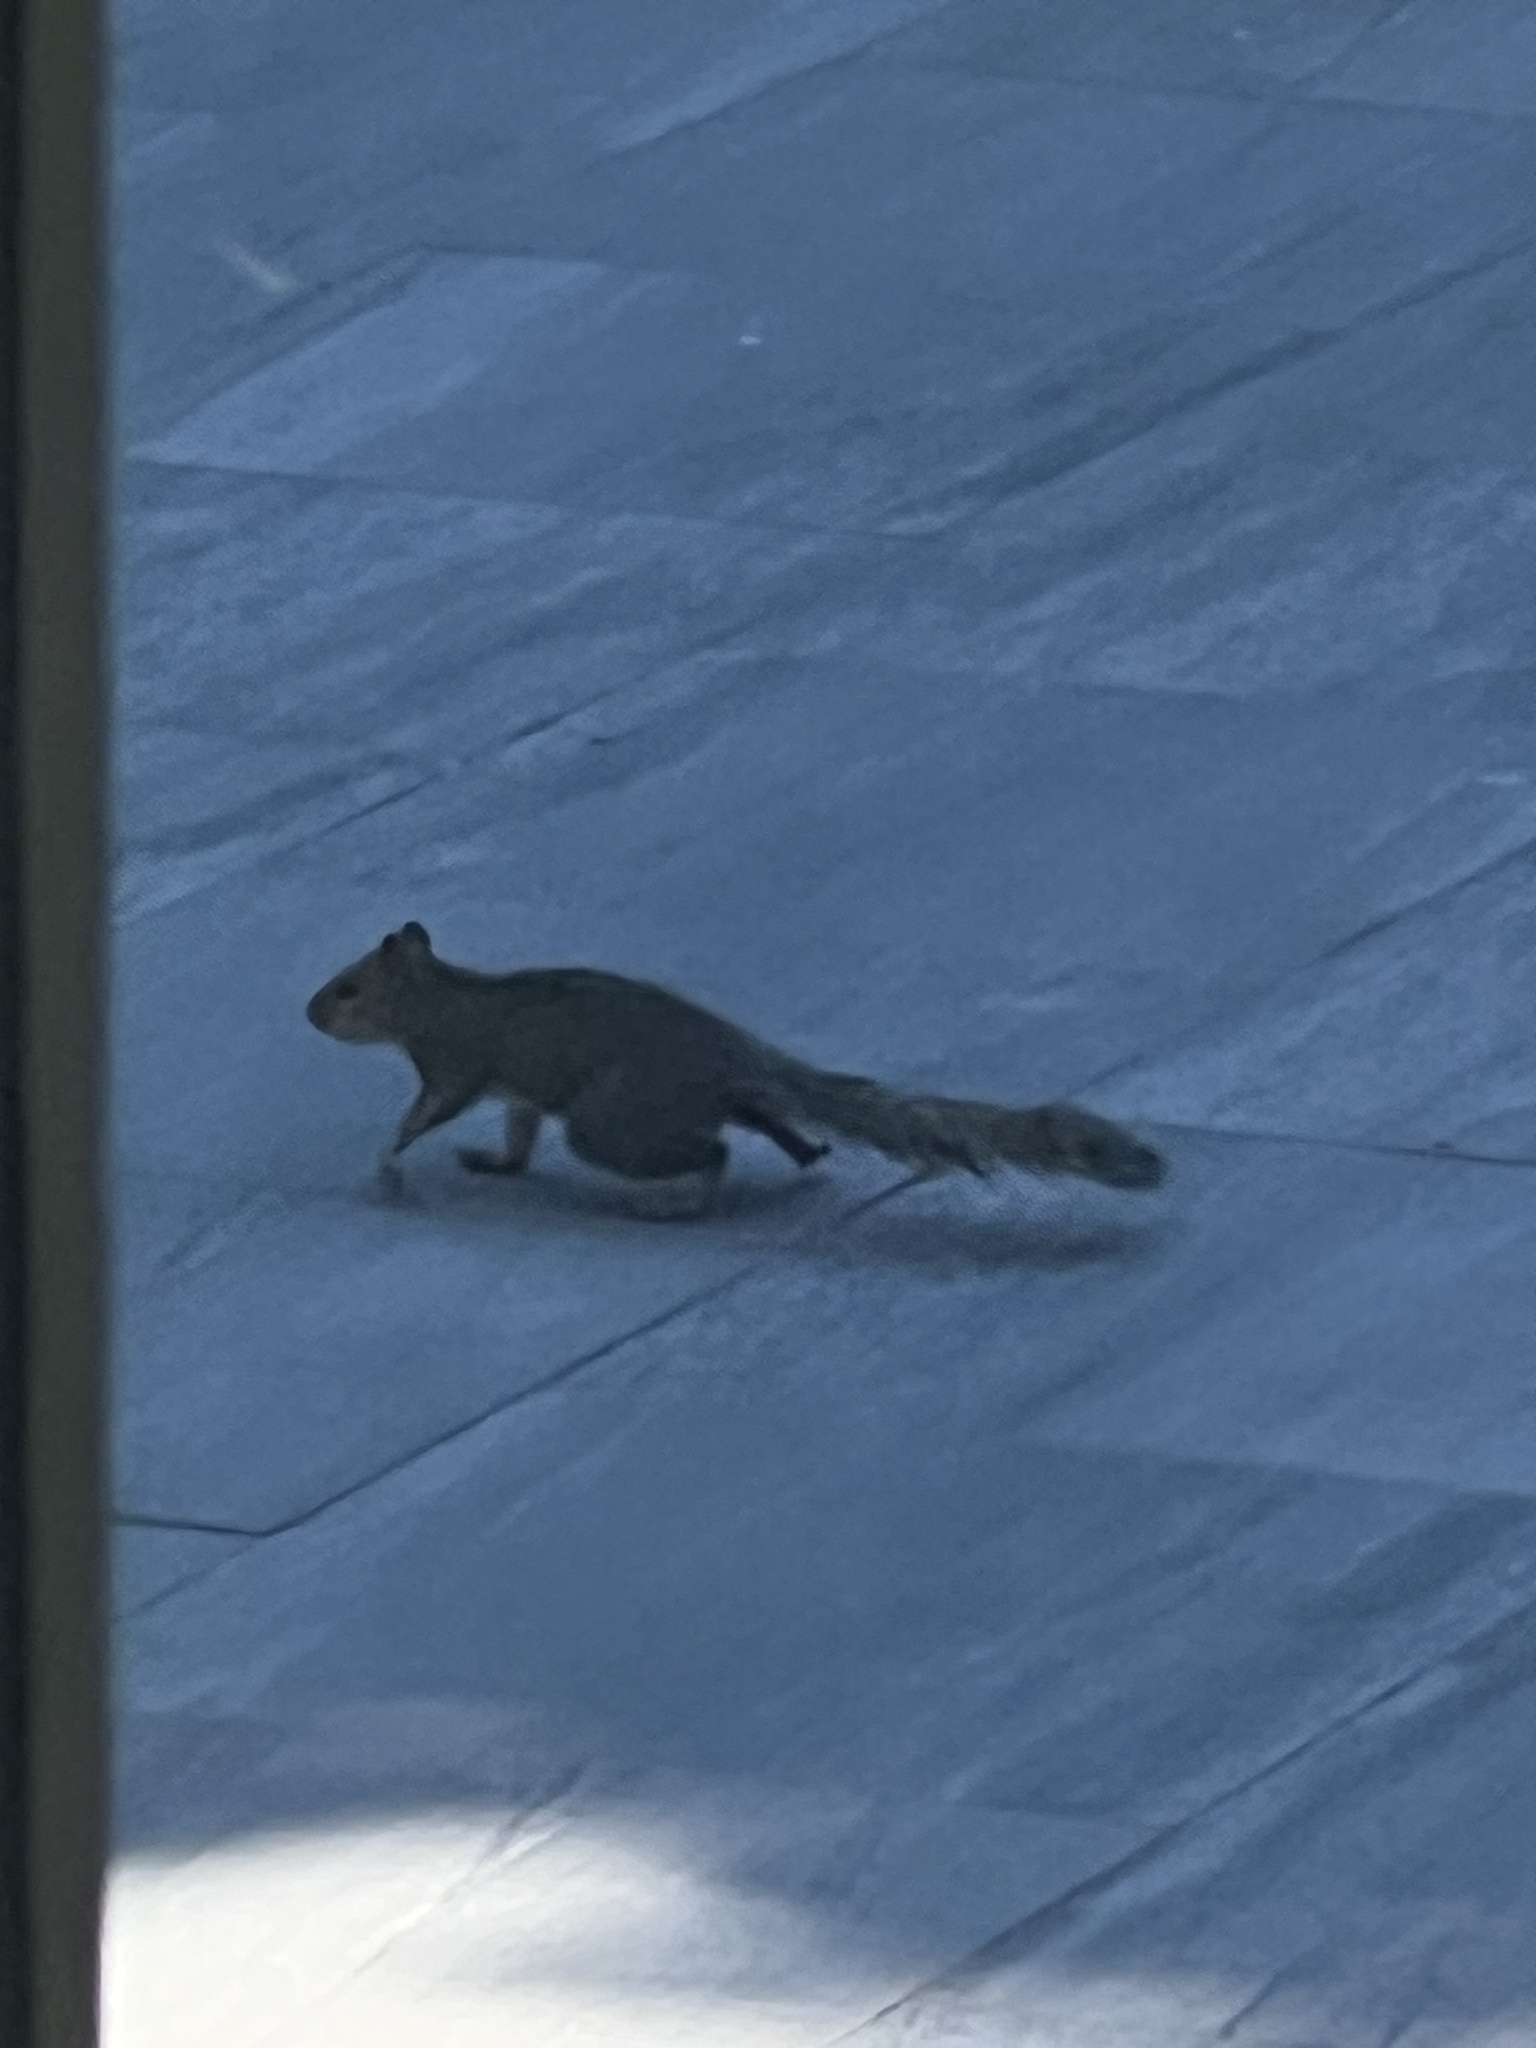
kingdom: Animalia
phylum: Chordata
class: Mammalia
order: Rodentia
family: Sciuridae
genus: Sciurus
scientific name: Sciurus carolinensis
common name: Eastern gray squirrel
